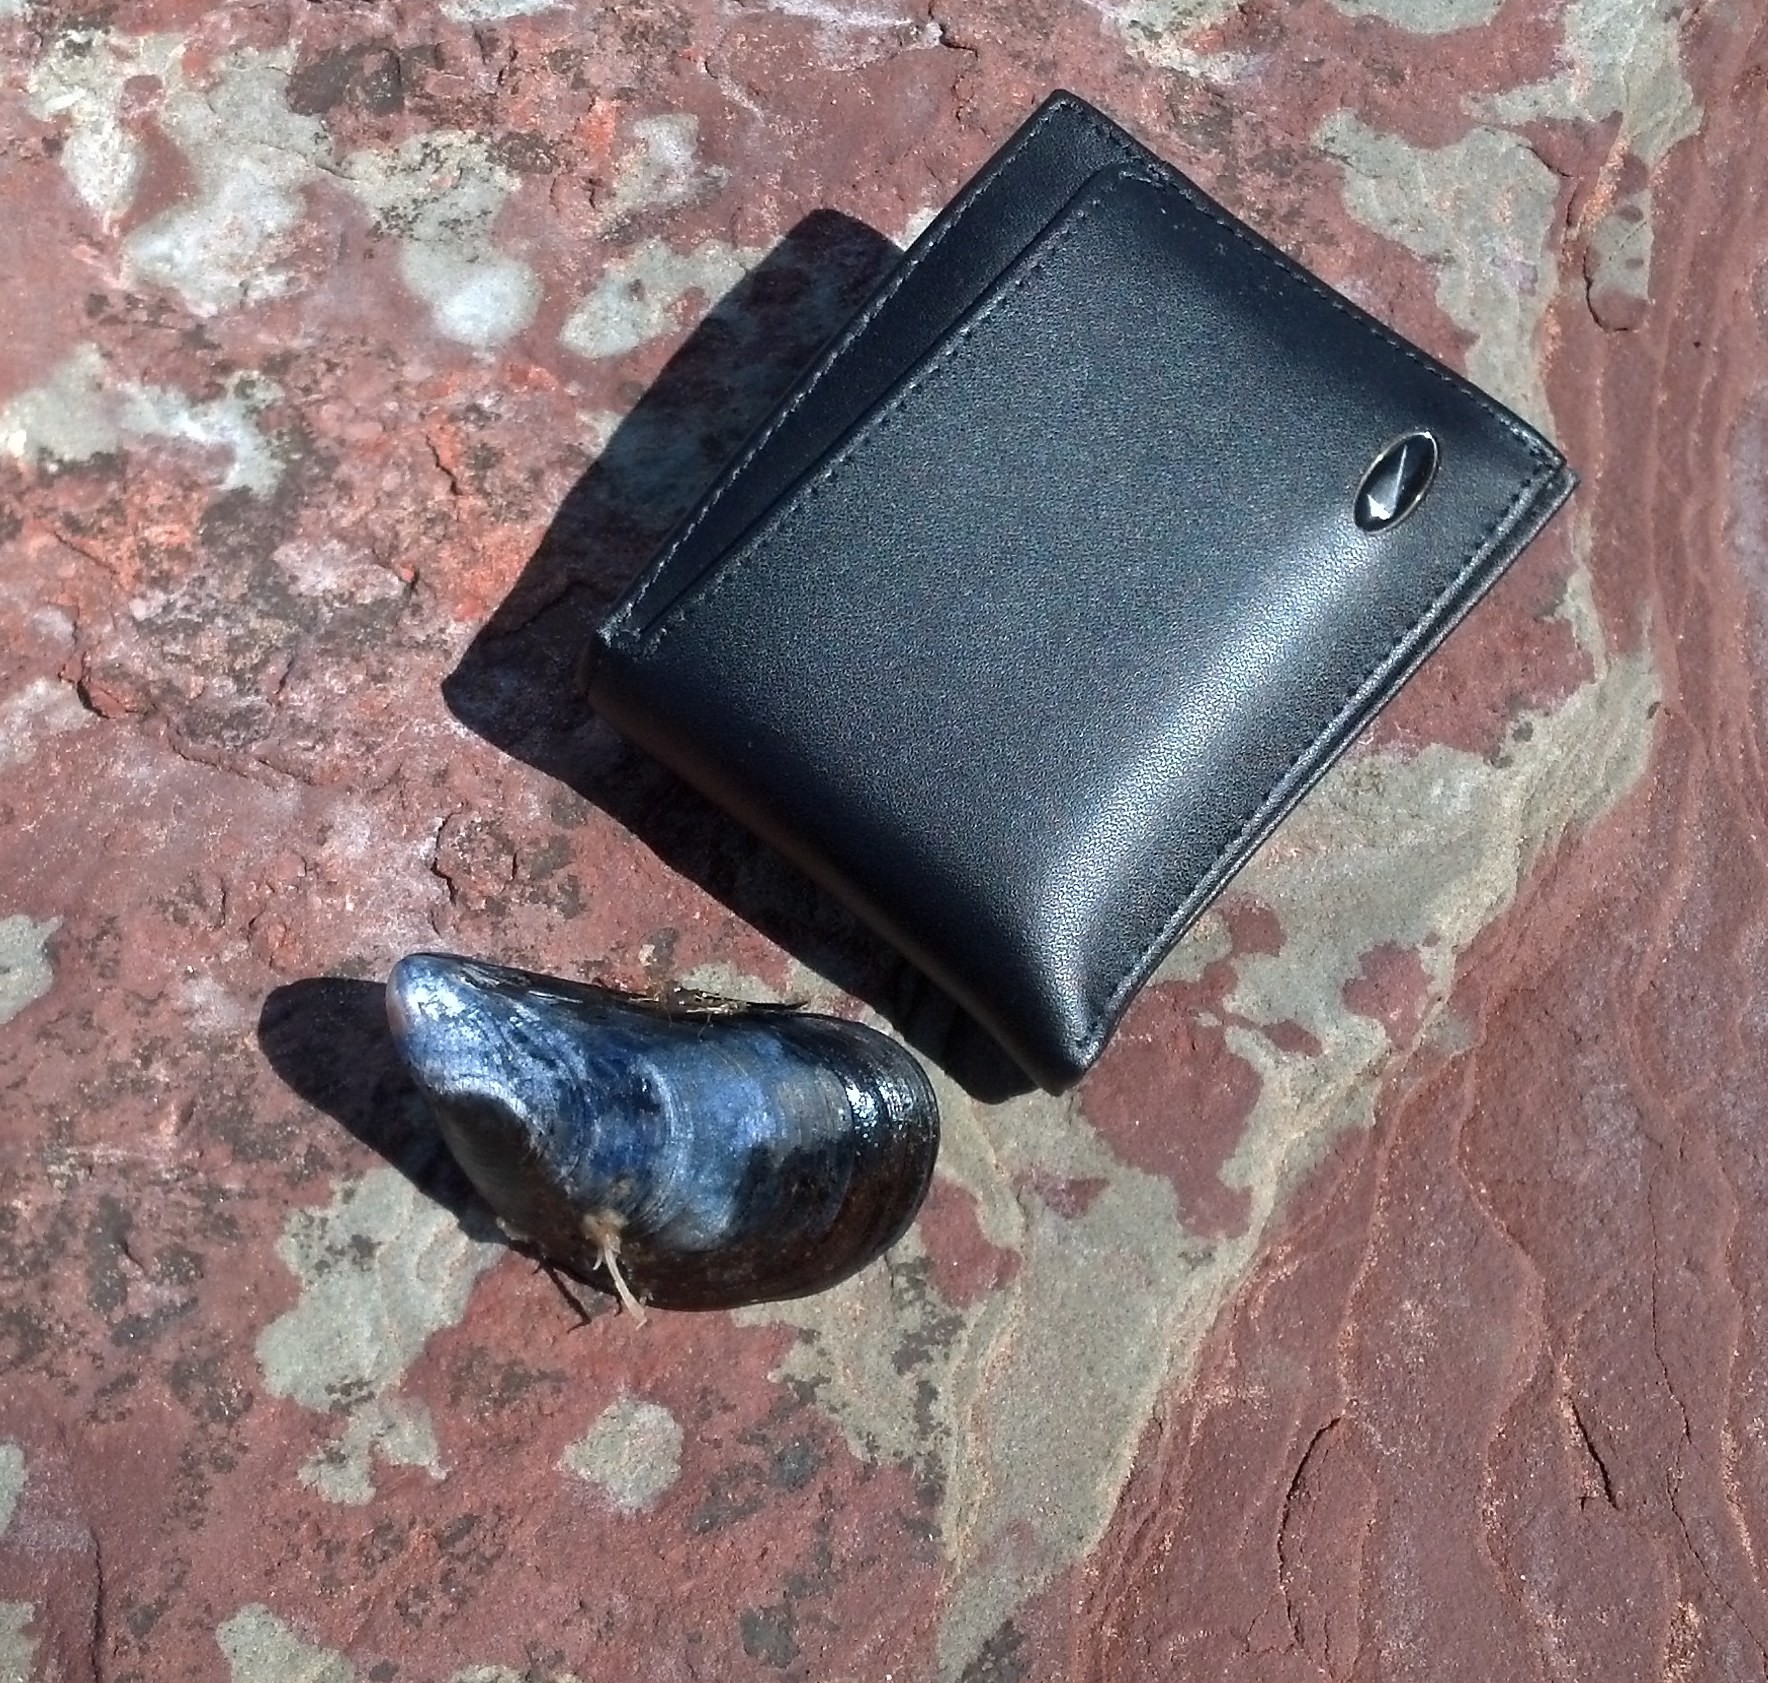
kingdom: Animalia
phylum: Mollusca
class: Bivalvia
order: Mytilida
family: Mytilidae
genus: Mytilus
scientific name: Mytilus
